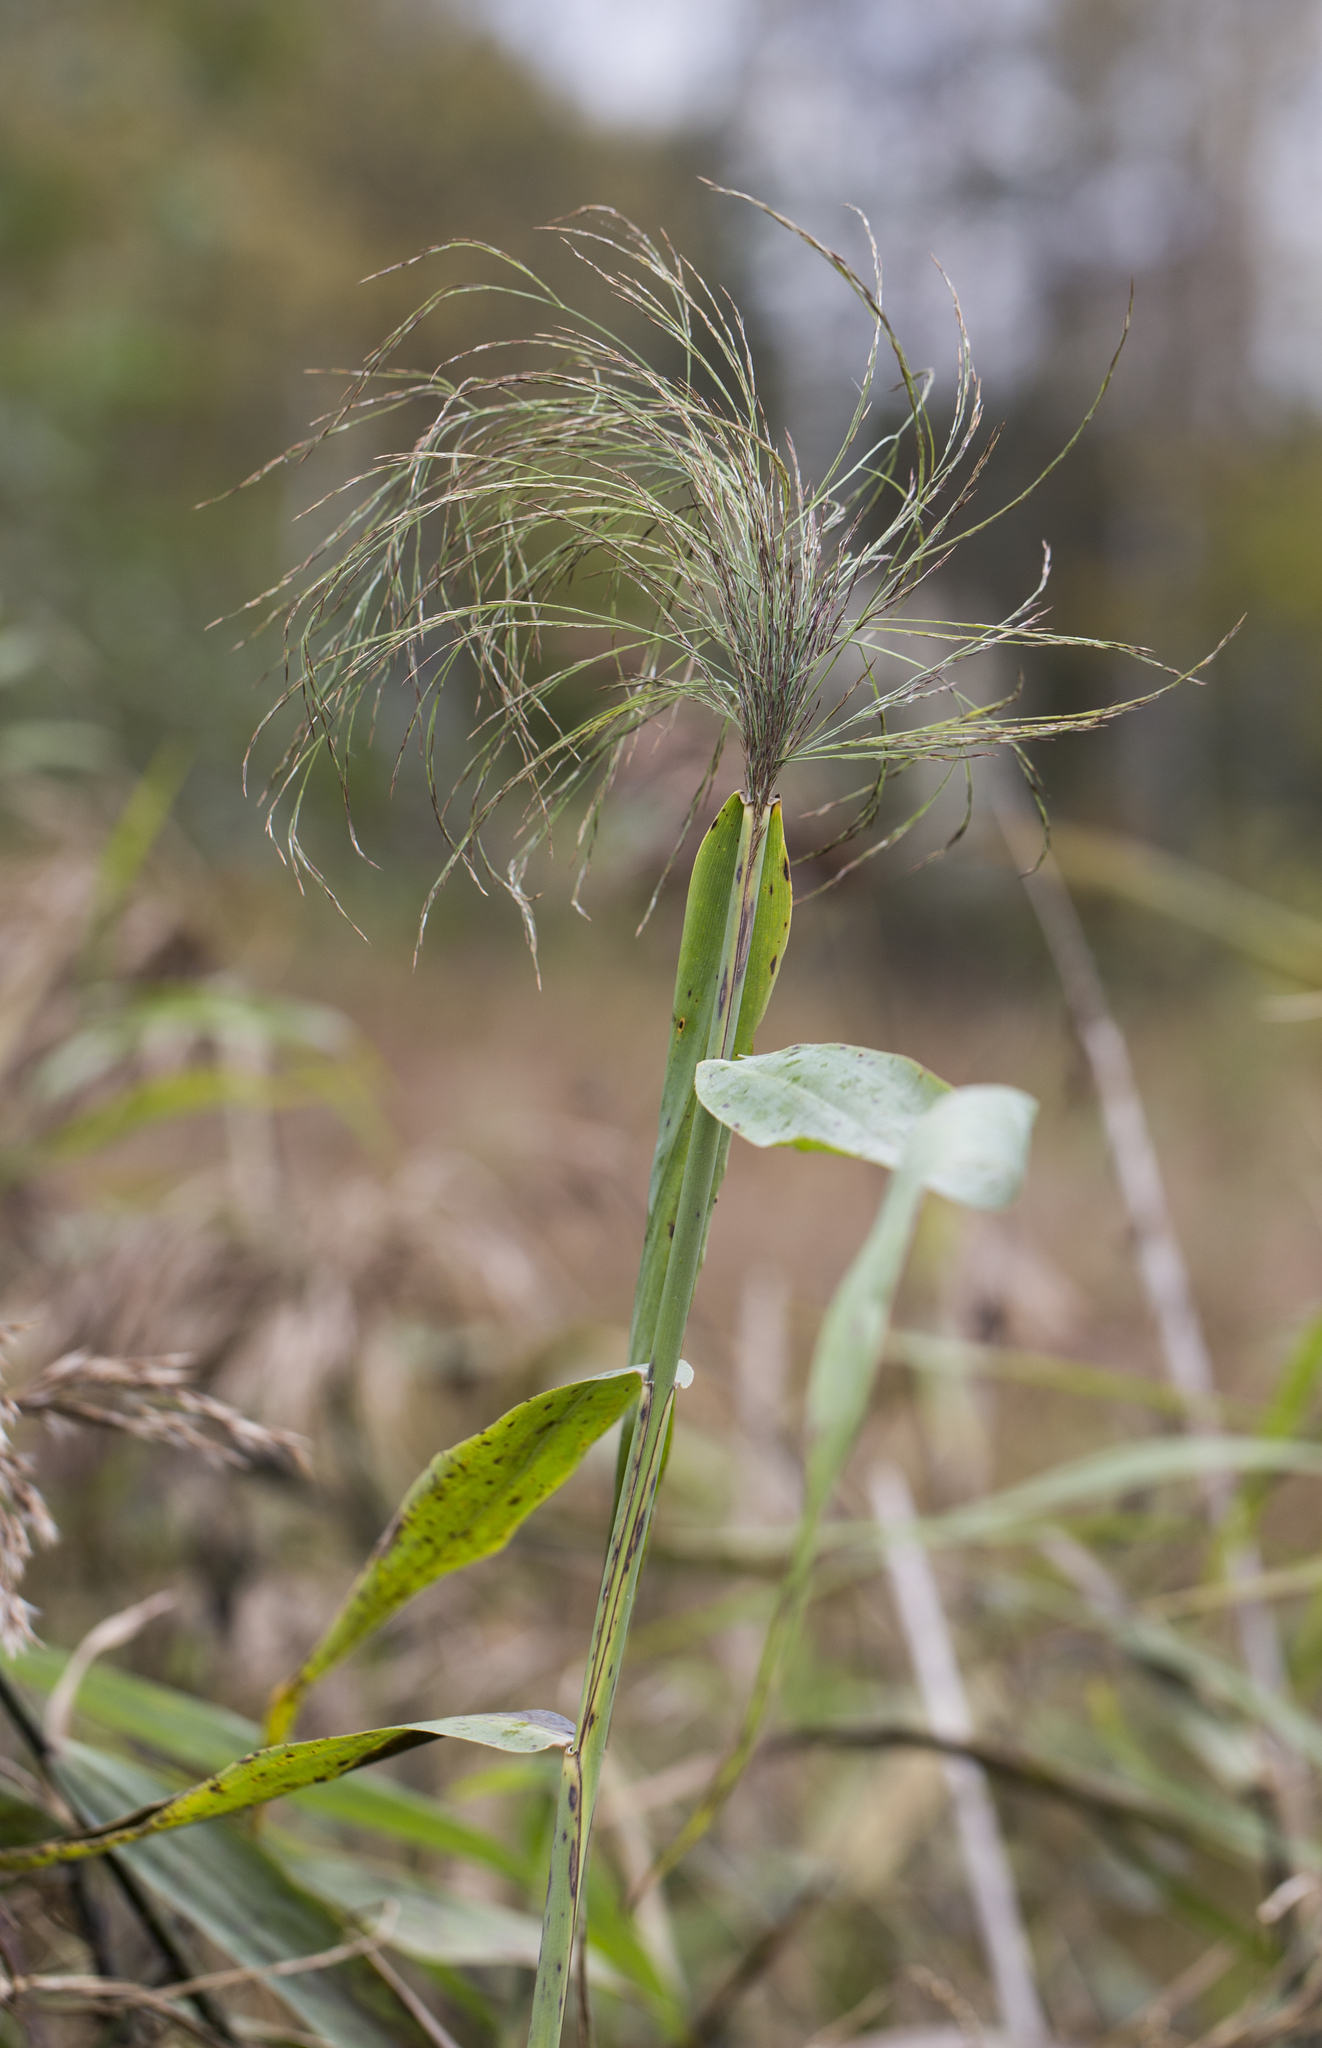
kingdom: Plantae
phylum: Tracheophyta
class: Liliopsida
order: Poales
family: Poaceae
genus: Phragmites
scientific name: Phragmites australis
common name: Common reed
